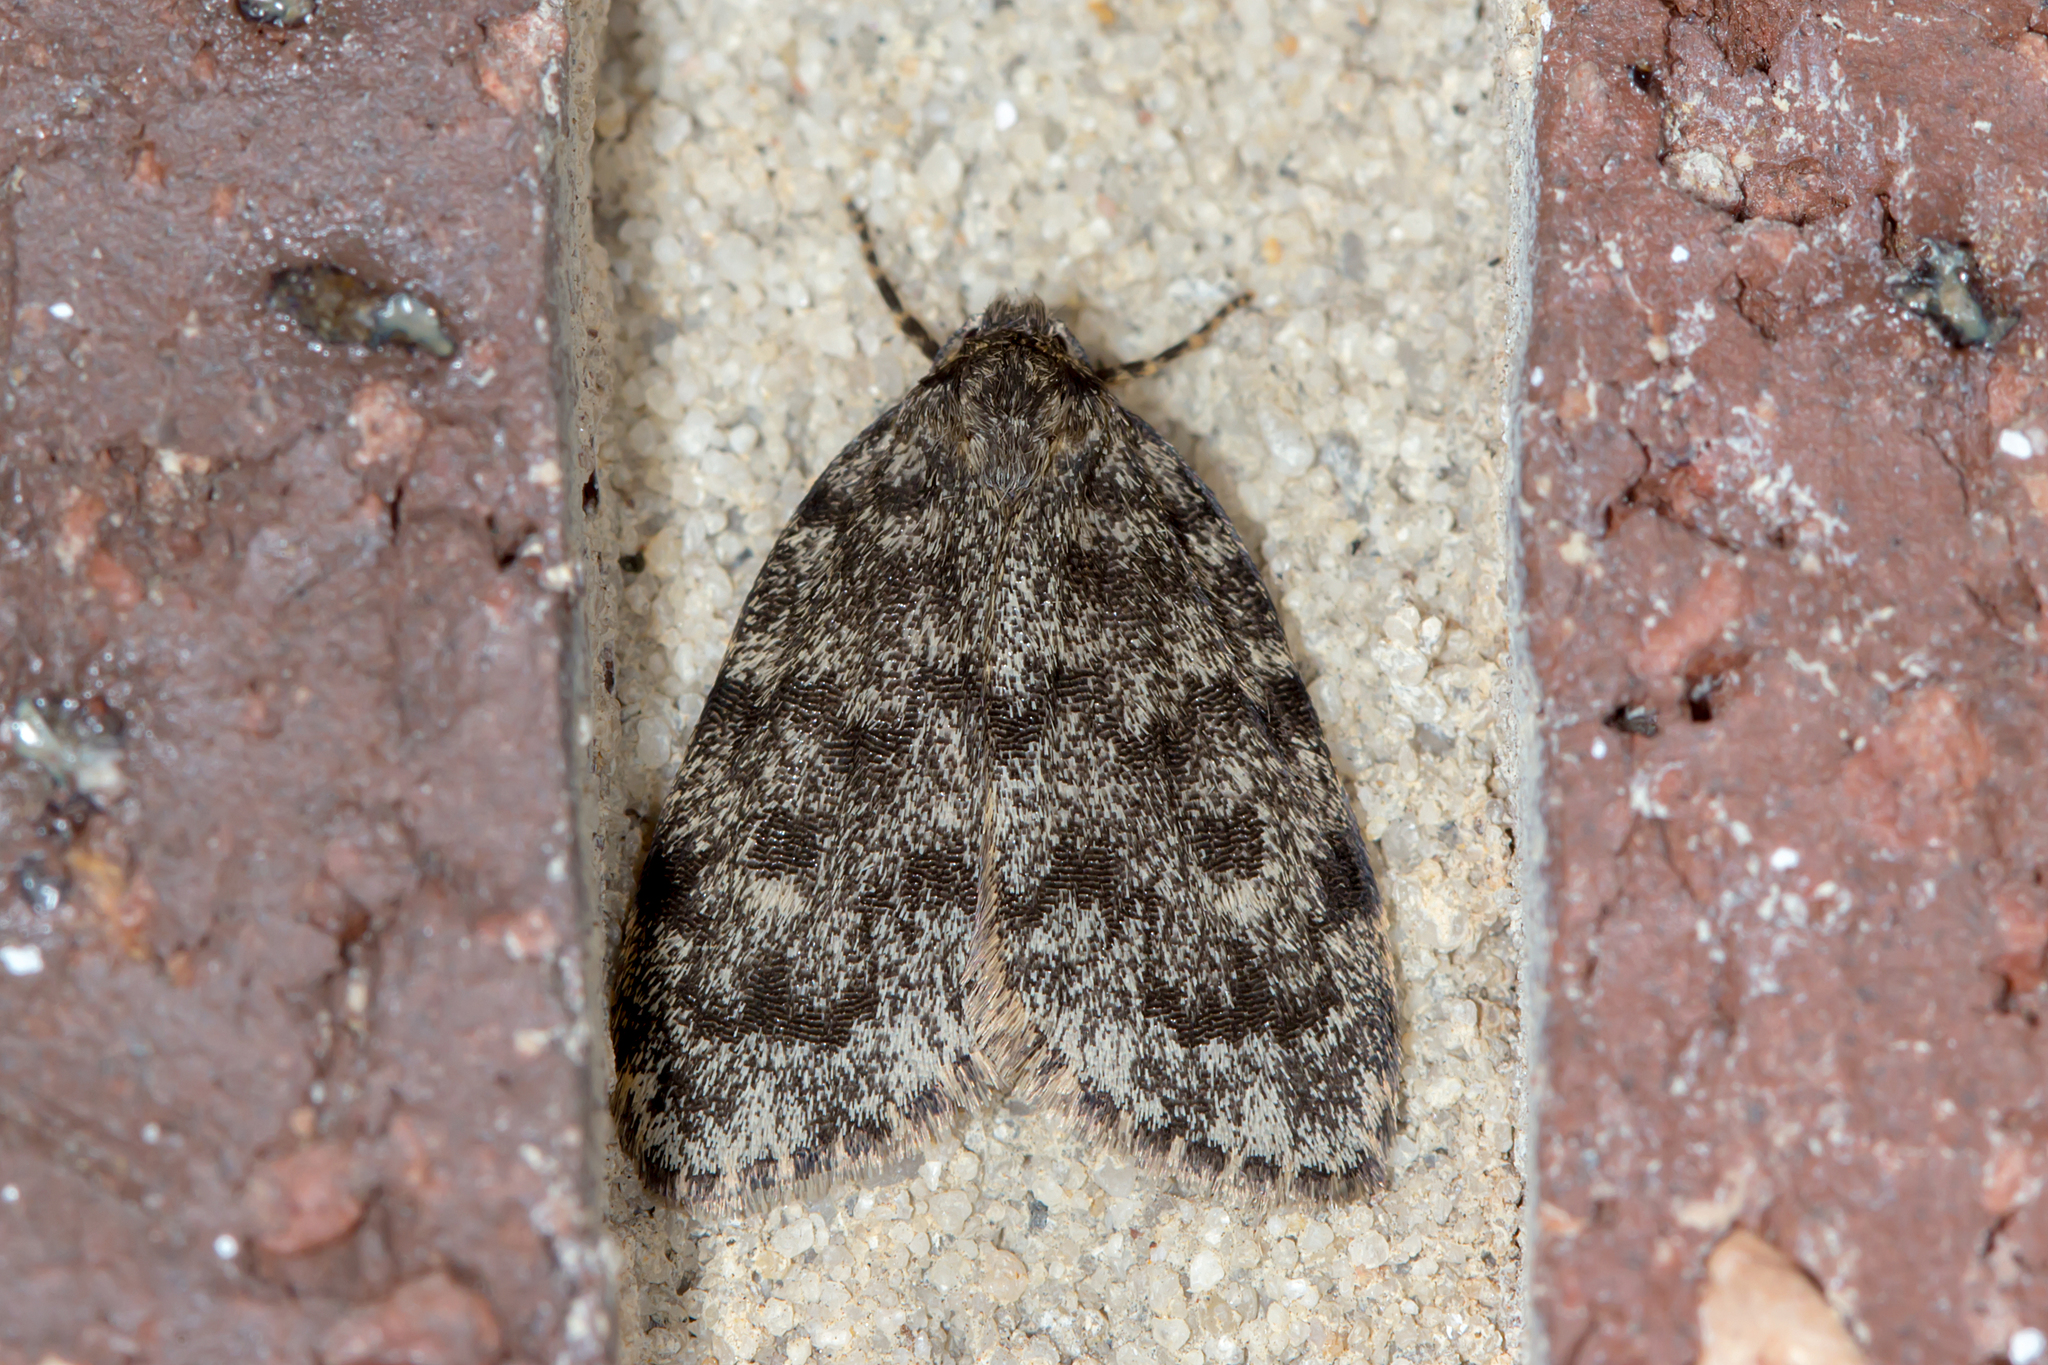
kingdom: Animalia
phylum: Arthropoda
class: Insecta
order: Lepidoptera
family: Erebidae
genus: Halone
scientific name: Halone consolatrix
